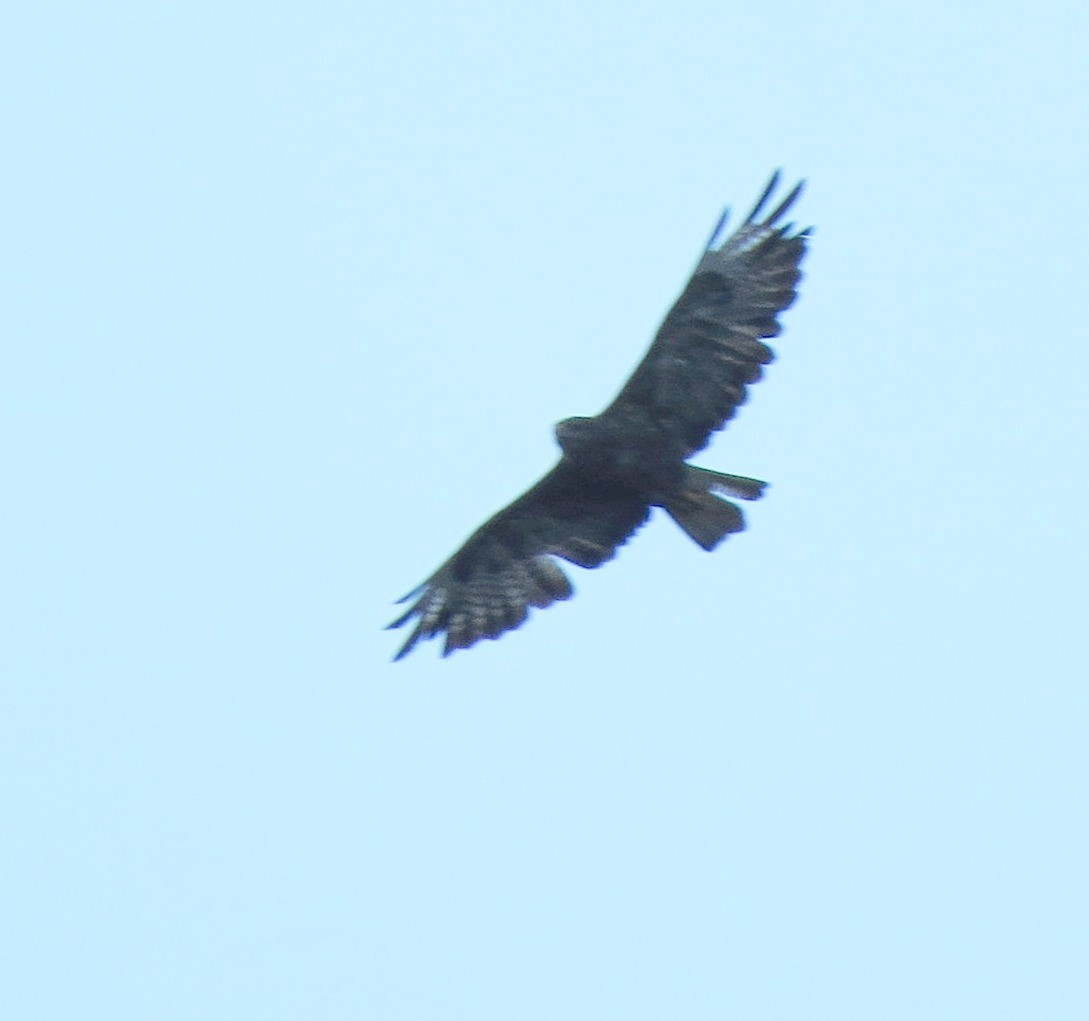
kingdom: Animalia
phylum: Chordata
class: Aves
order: Accipitriformes
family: Accipitridae
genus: Buteo
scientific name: Buteo buteo
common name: Common buzzard
